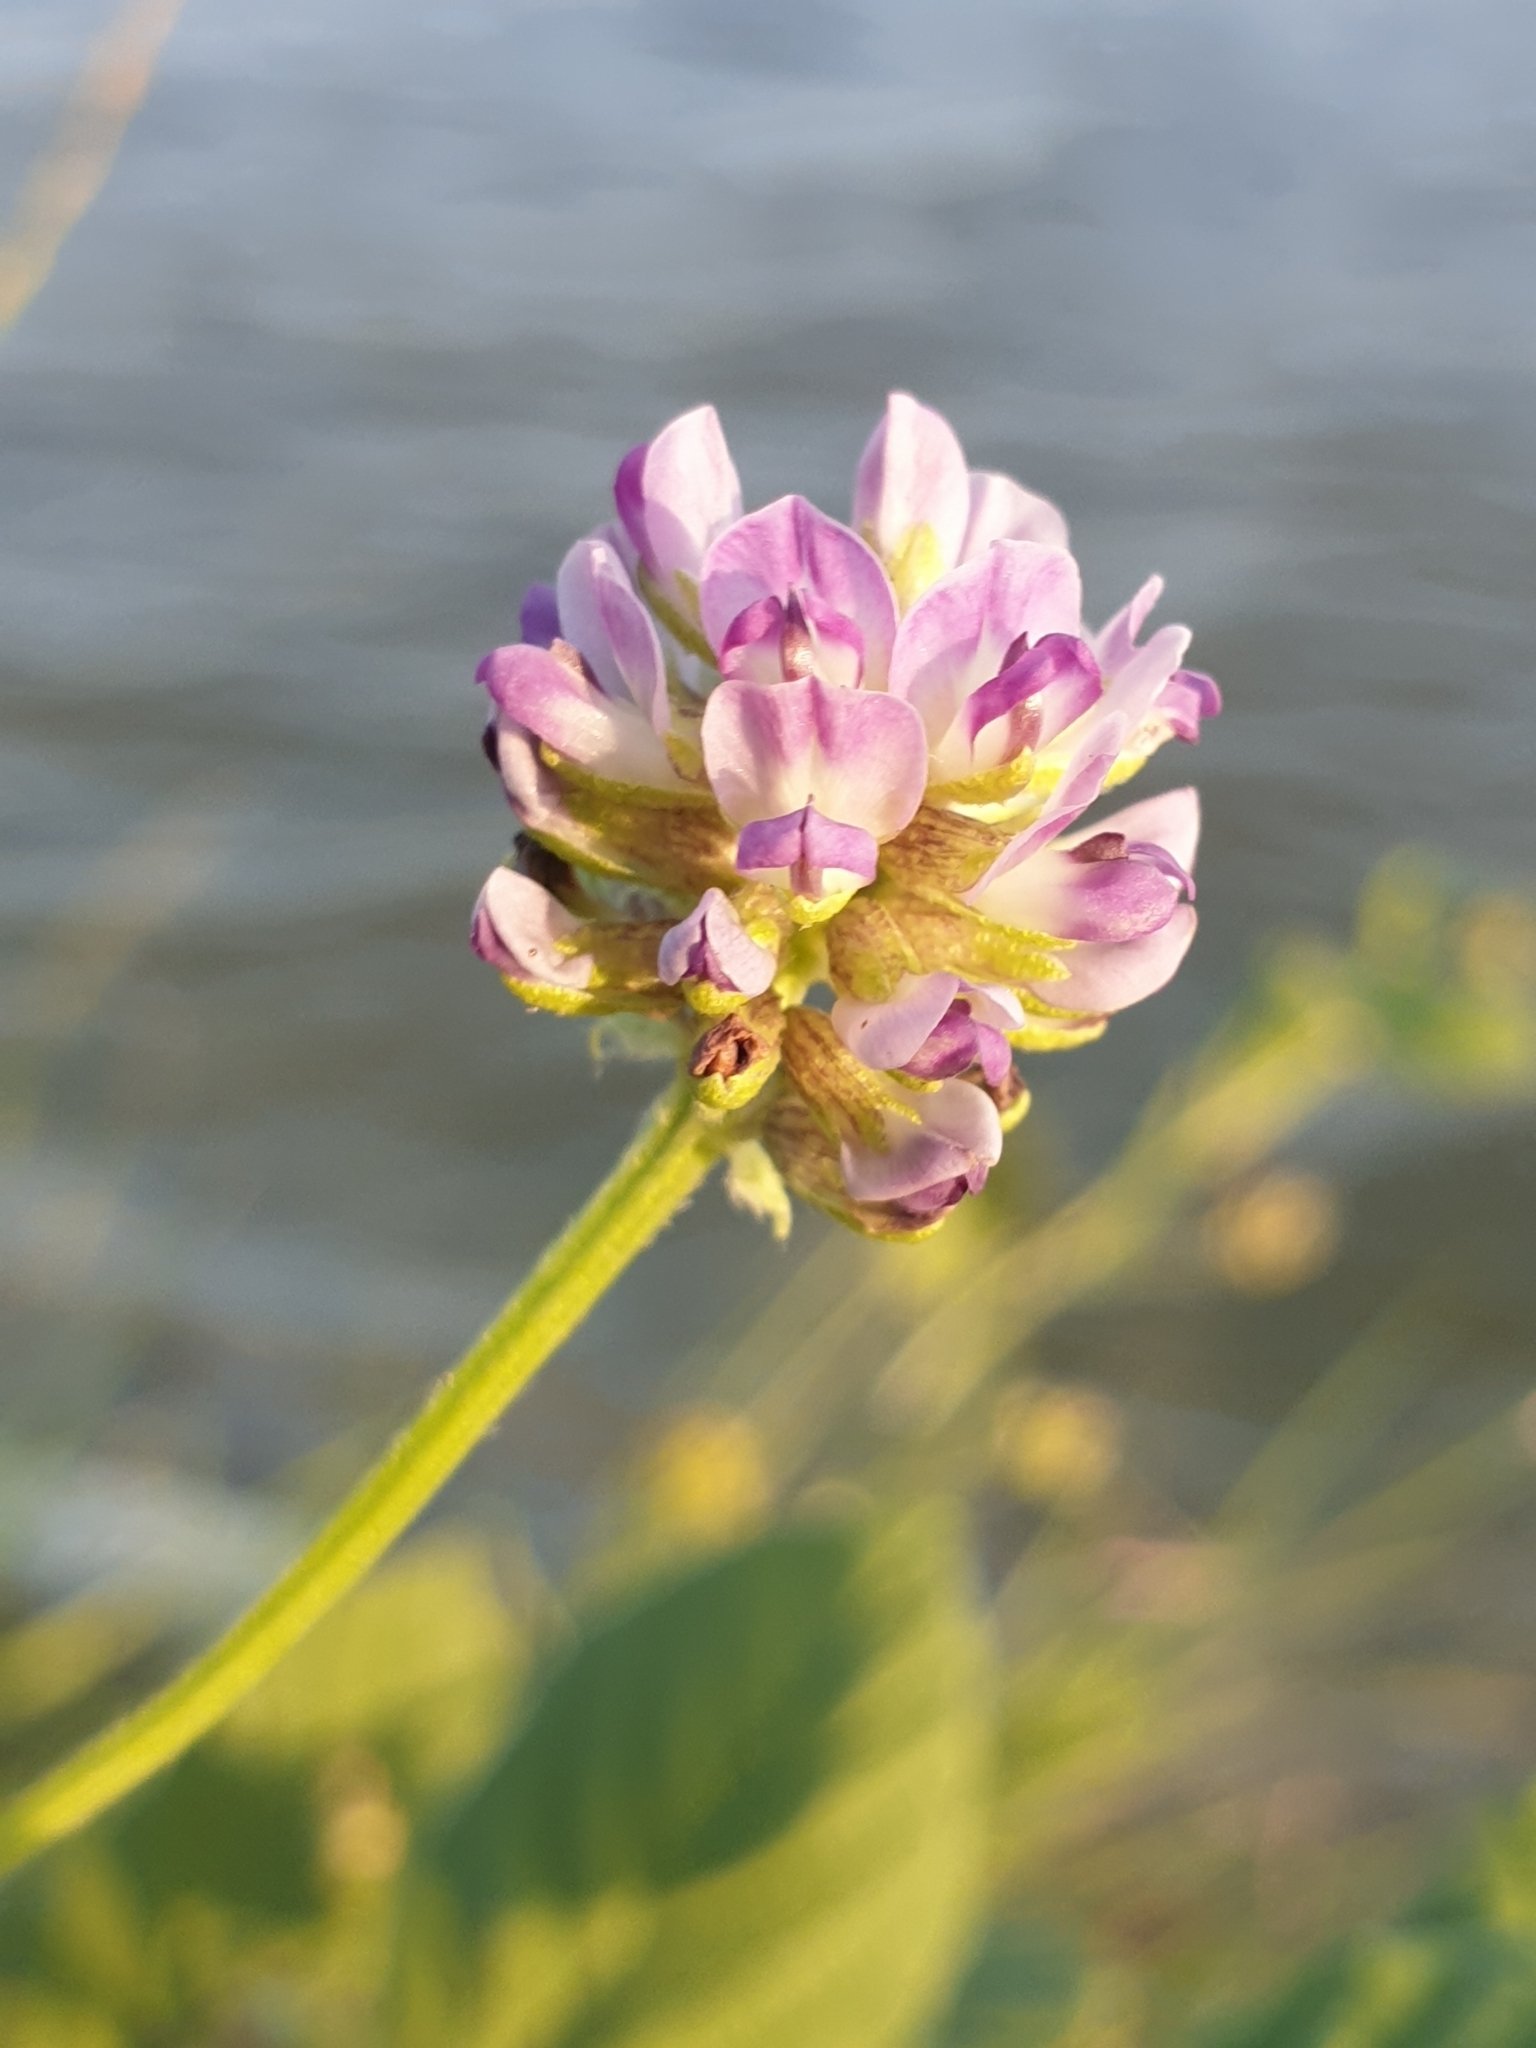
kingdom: Plantae
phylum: Tracheophyta
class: Magnoliopsida
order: Fabales
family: Fabaceae
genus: Cullen
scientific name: Cullen corylifolium
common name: Malaysian scurfpea
